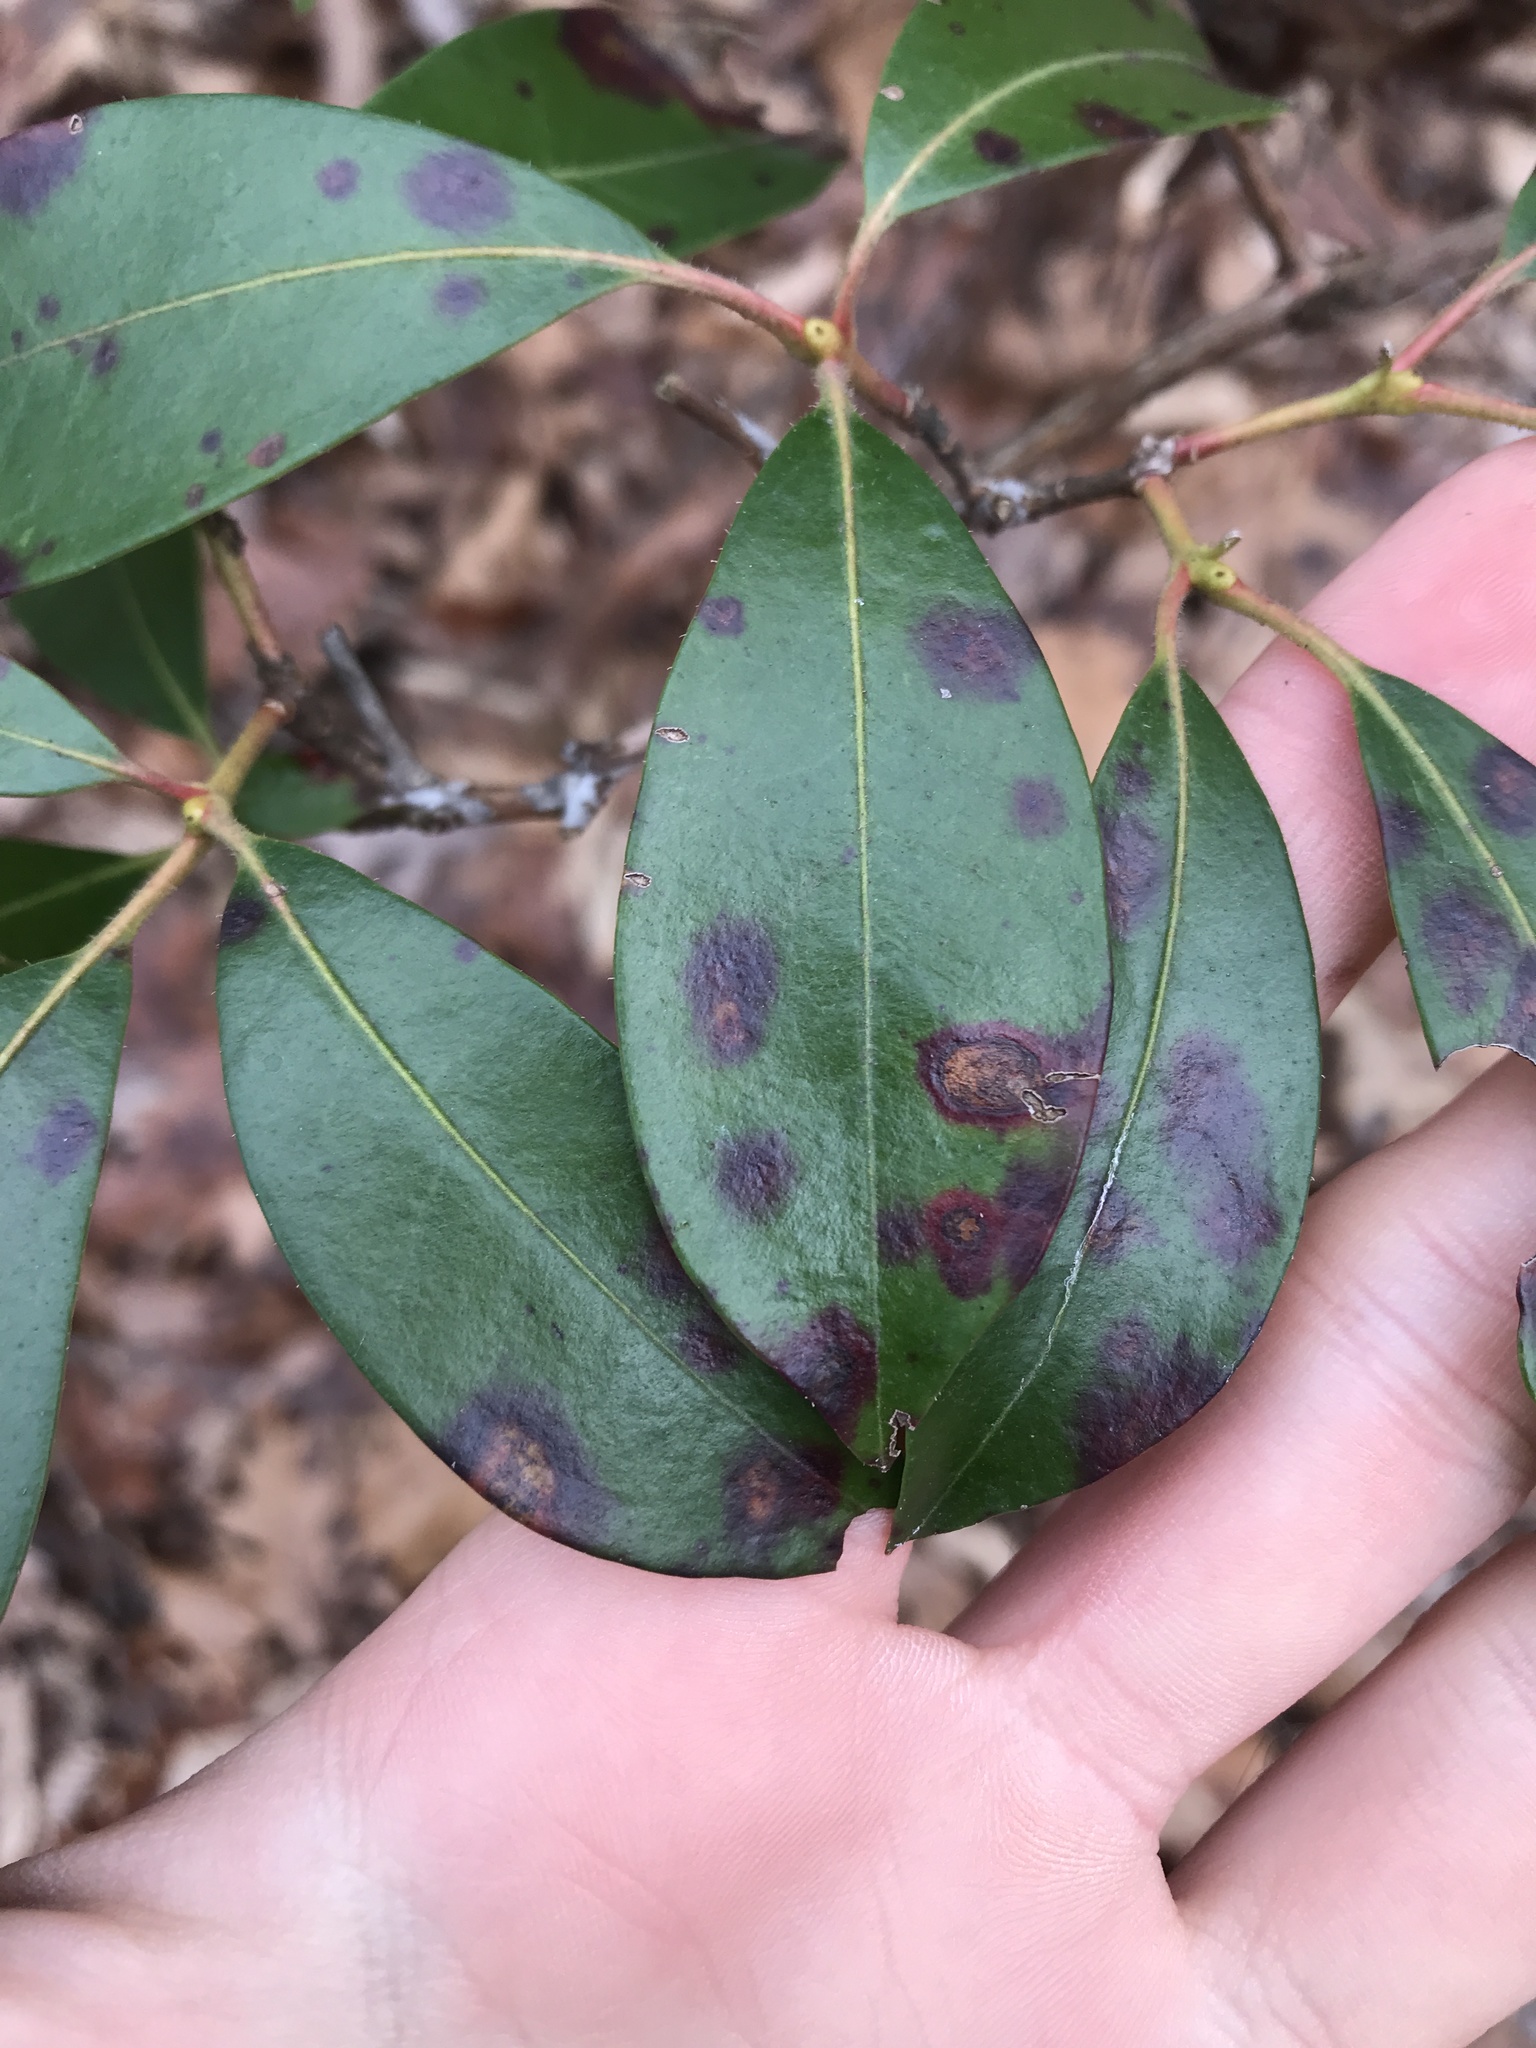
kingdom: Fungi
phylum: Ascomycota
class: Sordariomycetes
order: Diaporthales
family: Diaporthaceae
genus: Diaporthe
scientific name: Diaporthe kalmiae
